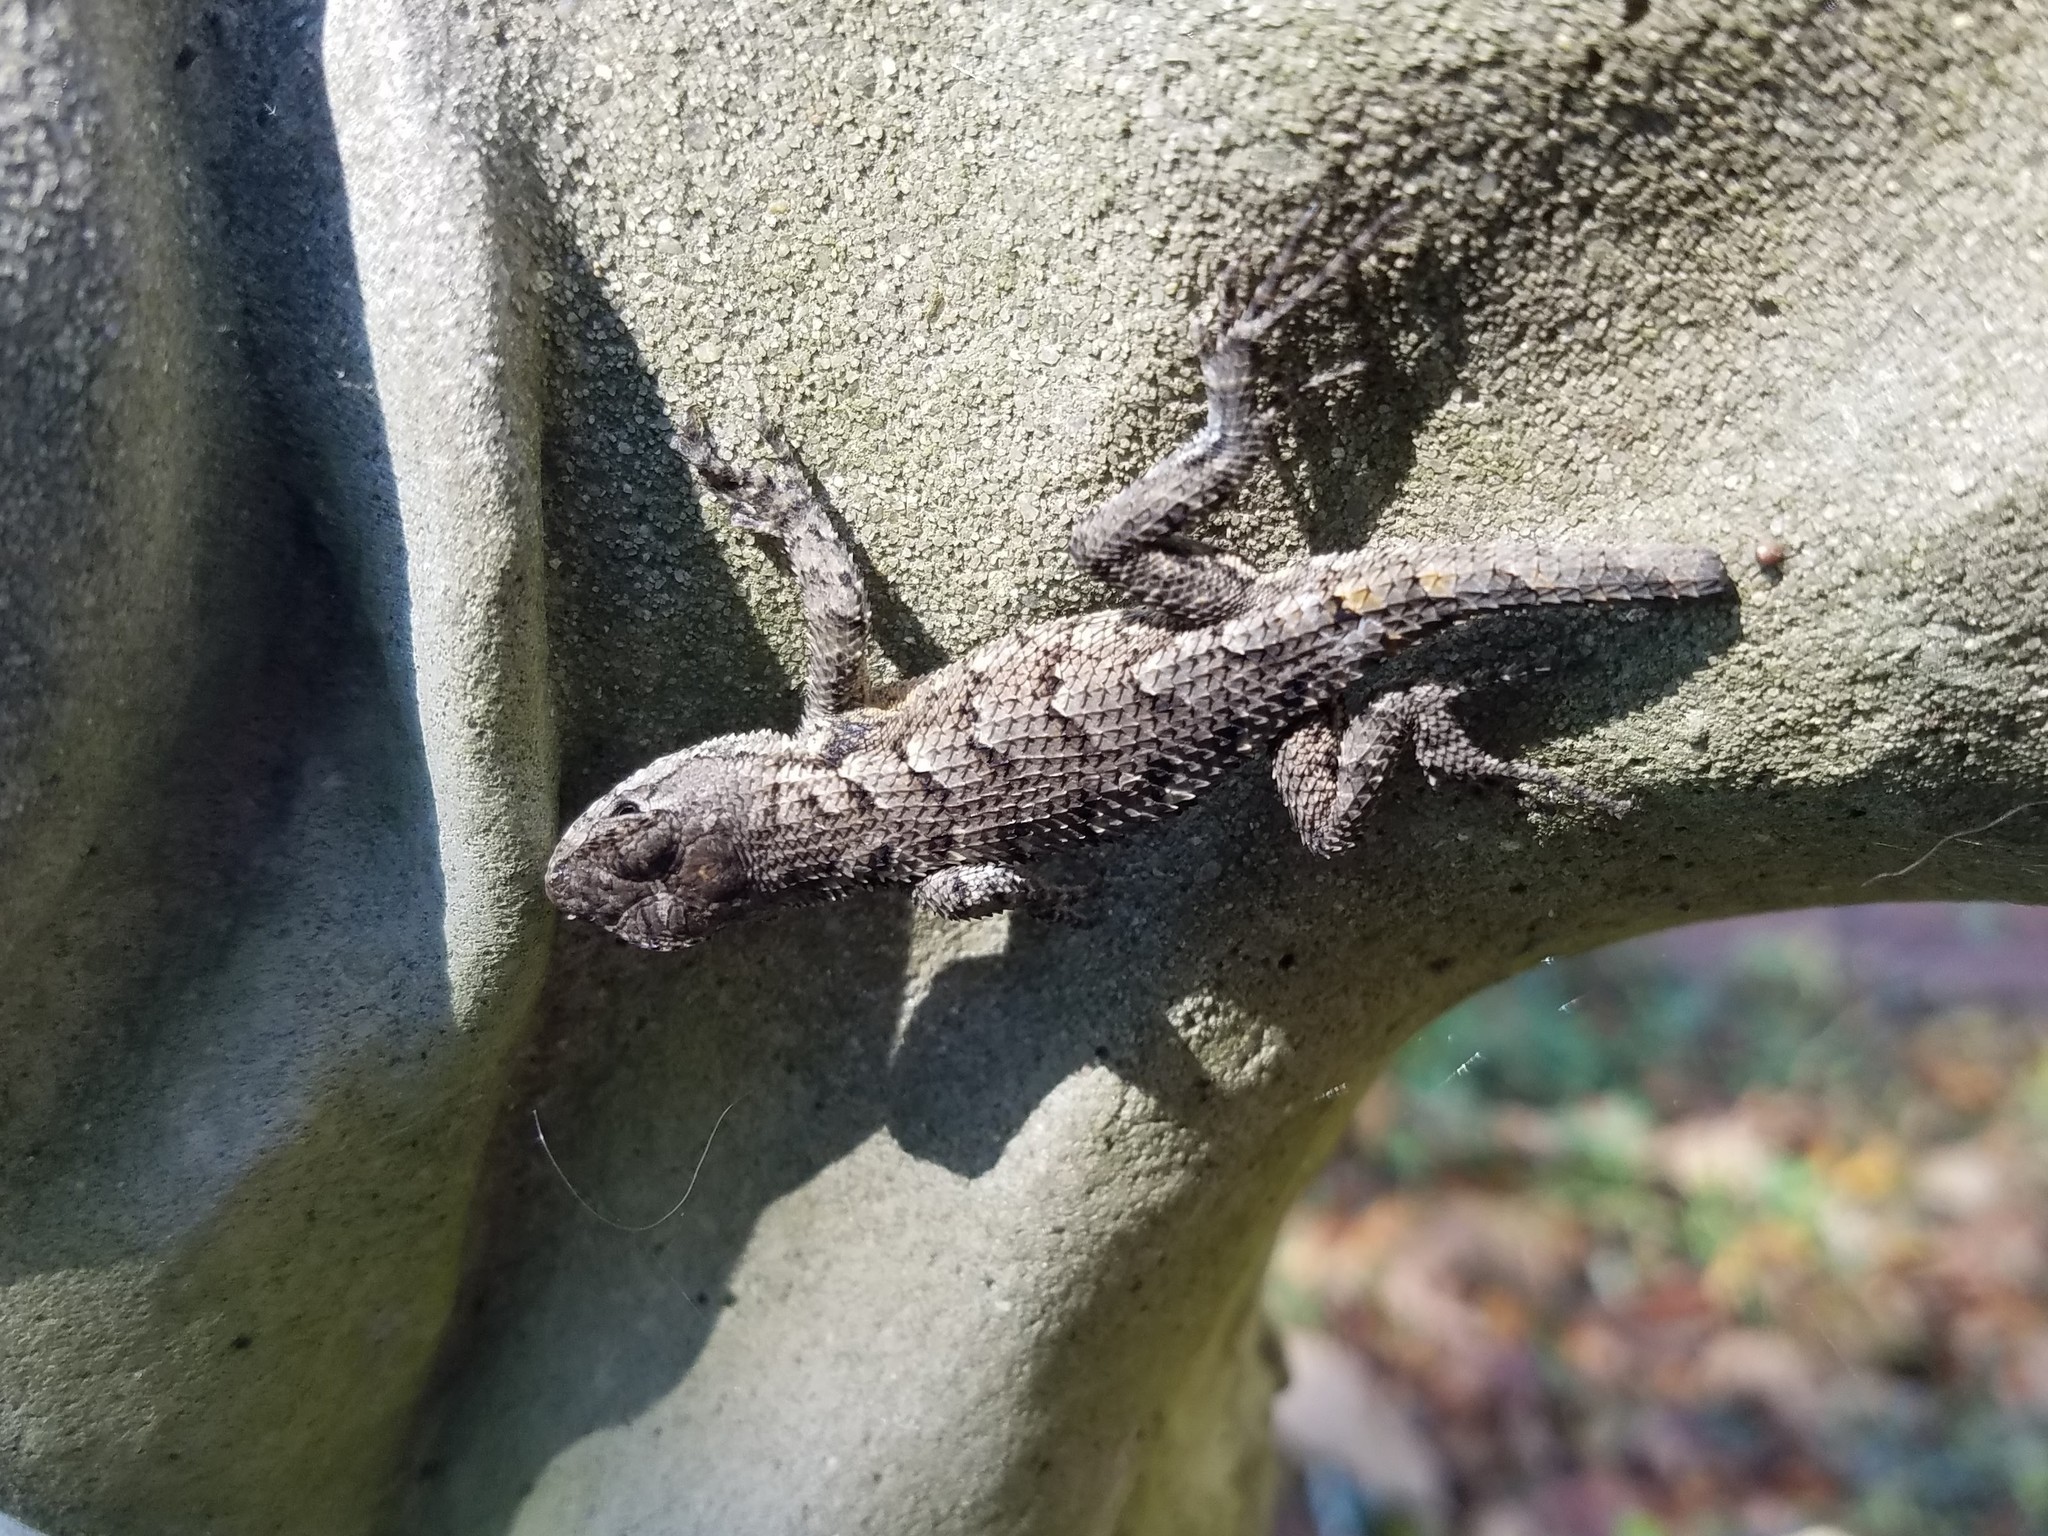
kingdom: Animalia
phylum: Chordata
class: Squamata
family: Phrynosomatidae
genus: Sceloporus
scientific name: Sceloporus undulatus
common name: Eastern fence lizard
